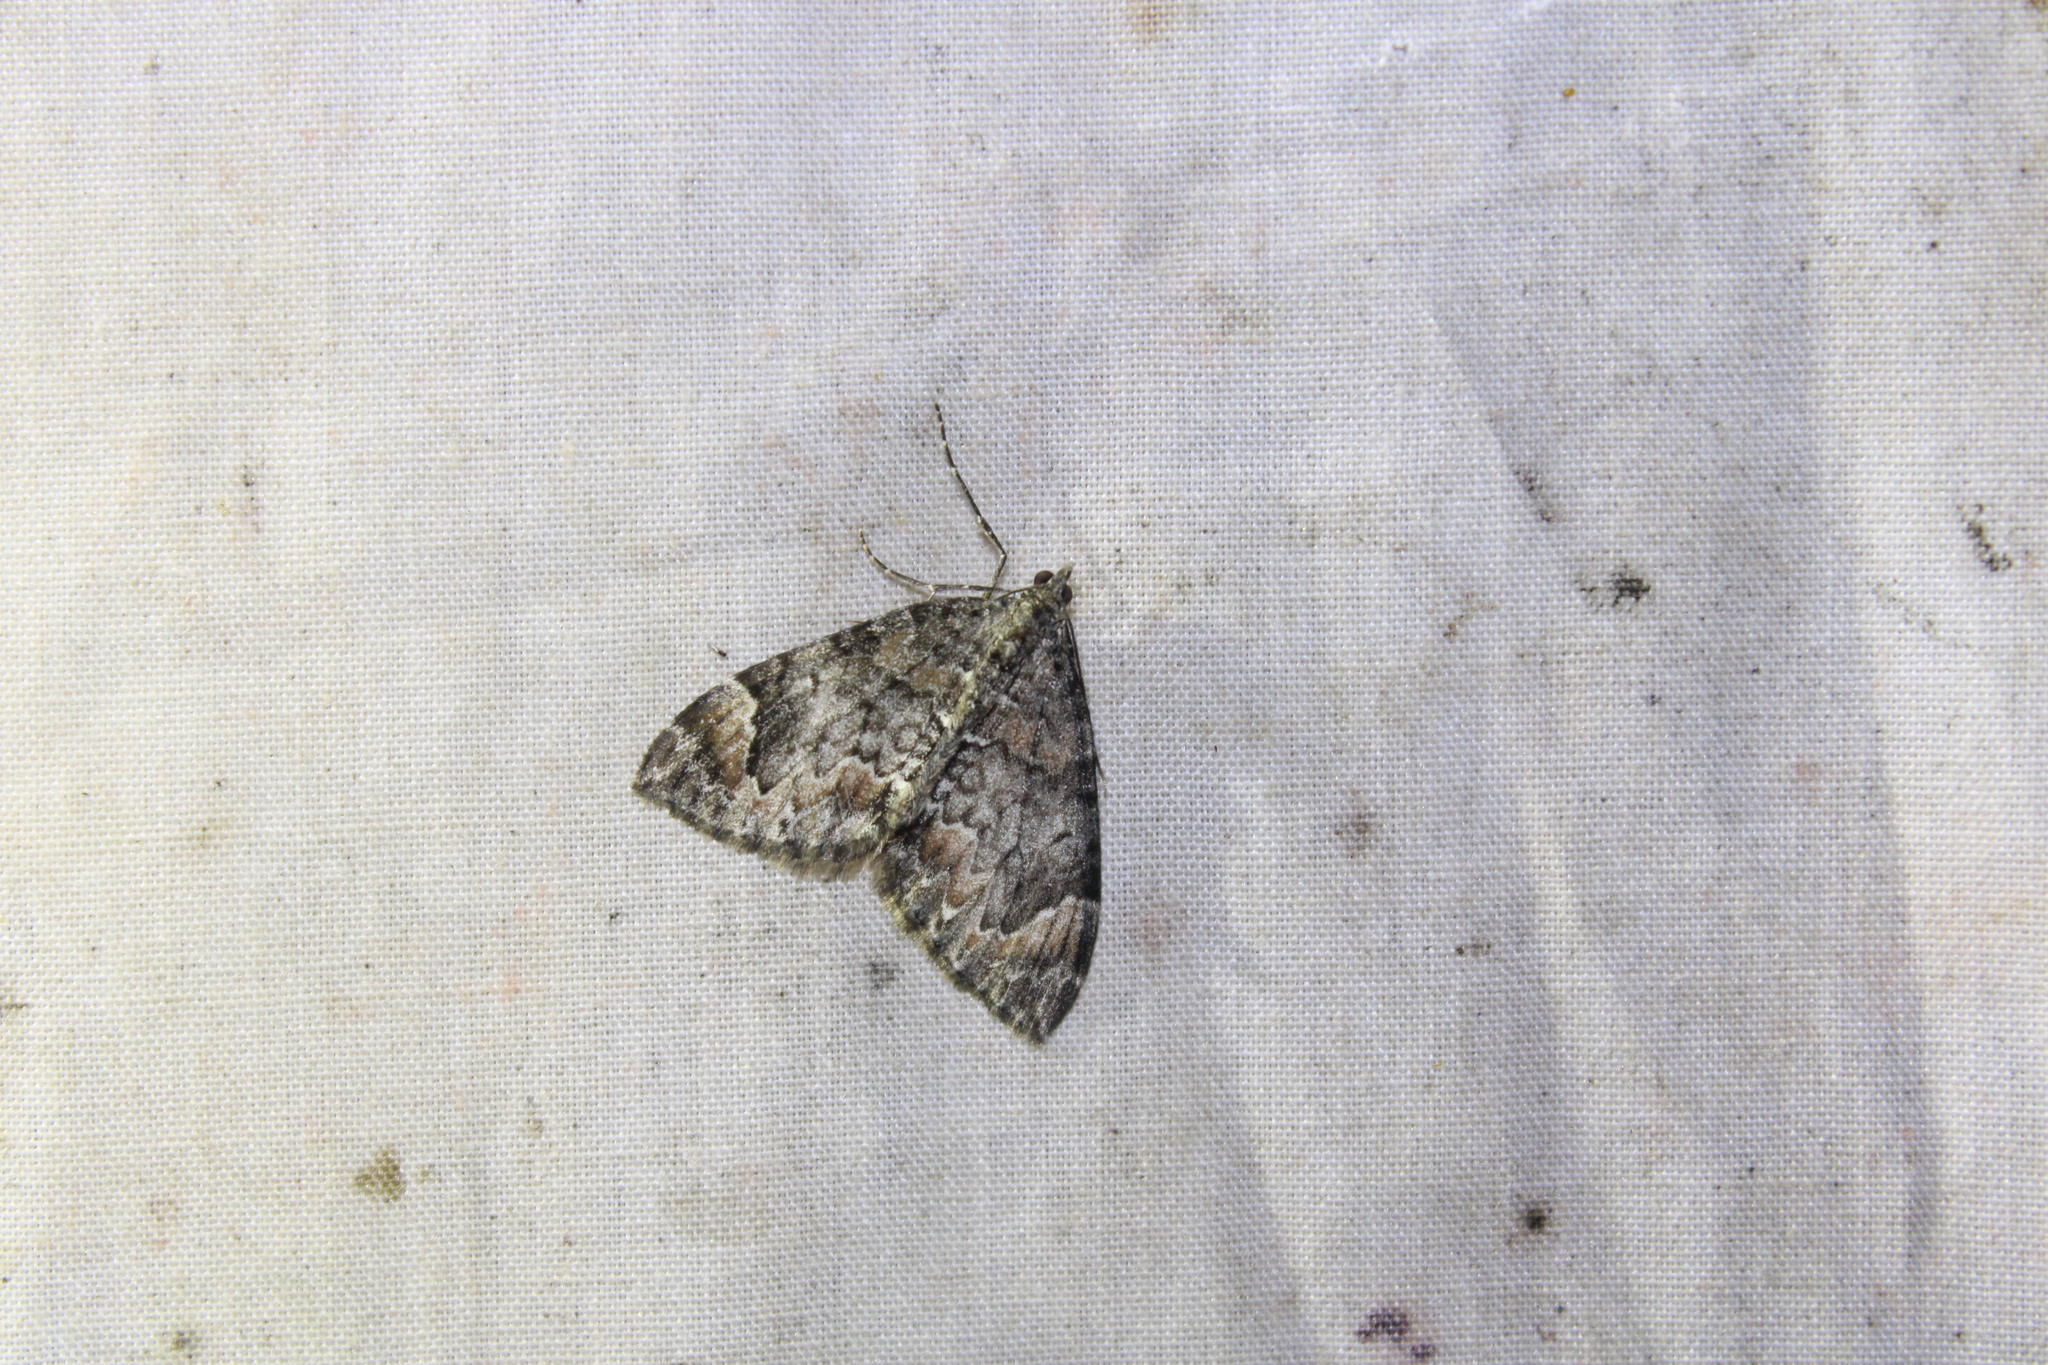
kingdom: Animalia
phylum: Arthropoda
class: Insecta
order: Lepidoptera
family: Geometridae
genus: Dysstroma
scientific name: Dysstroma citrata
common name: Dark marbled carpet
